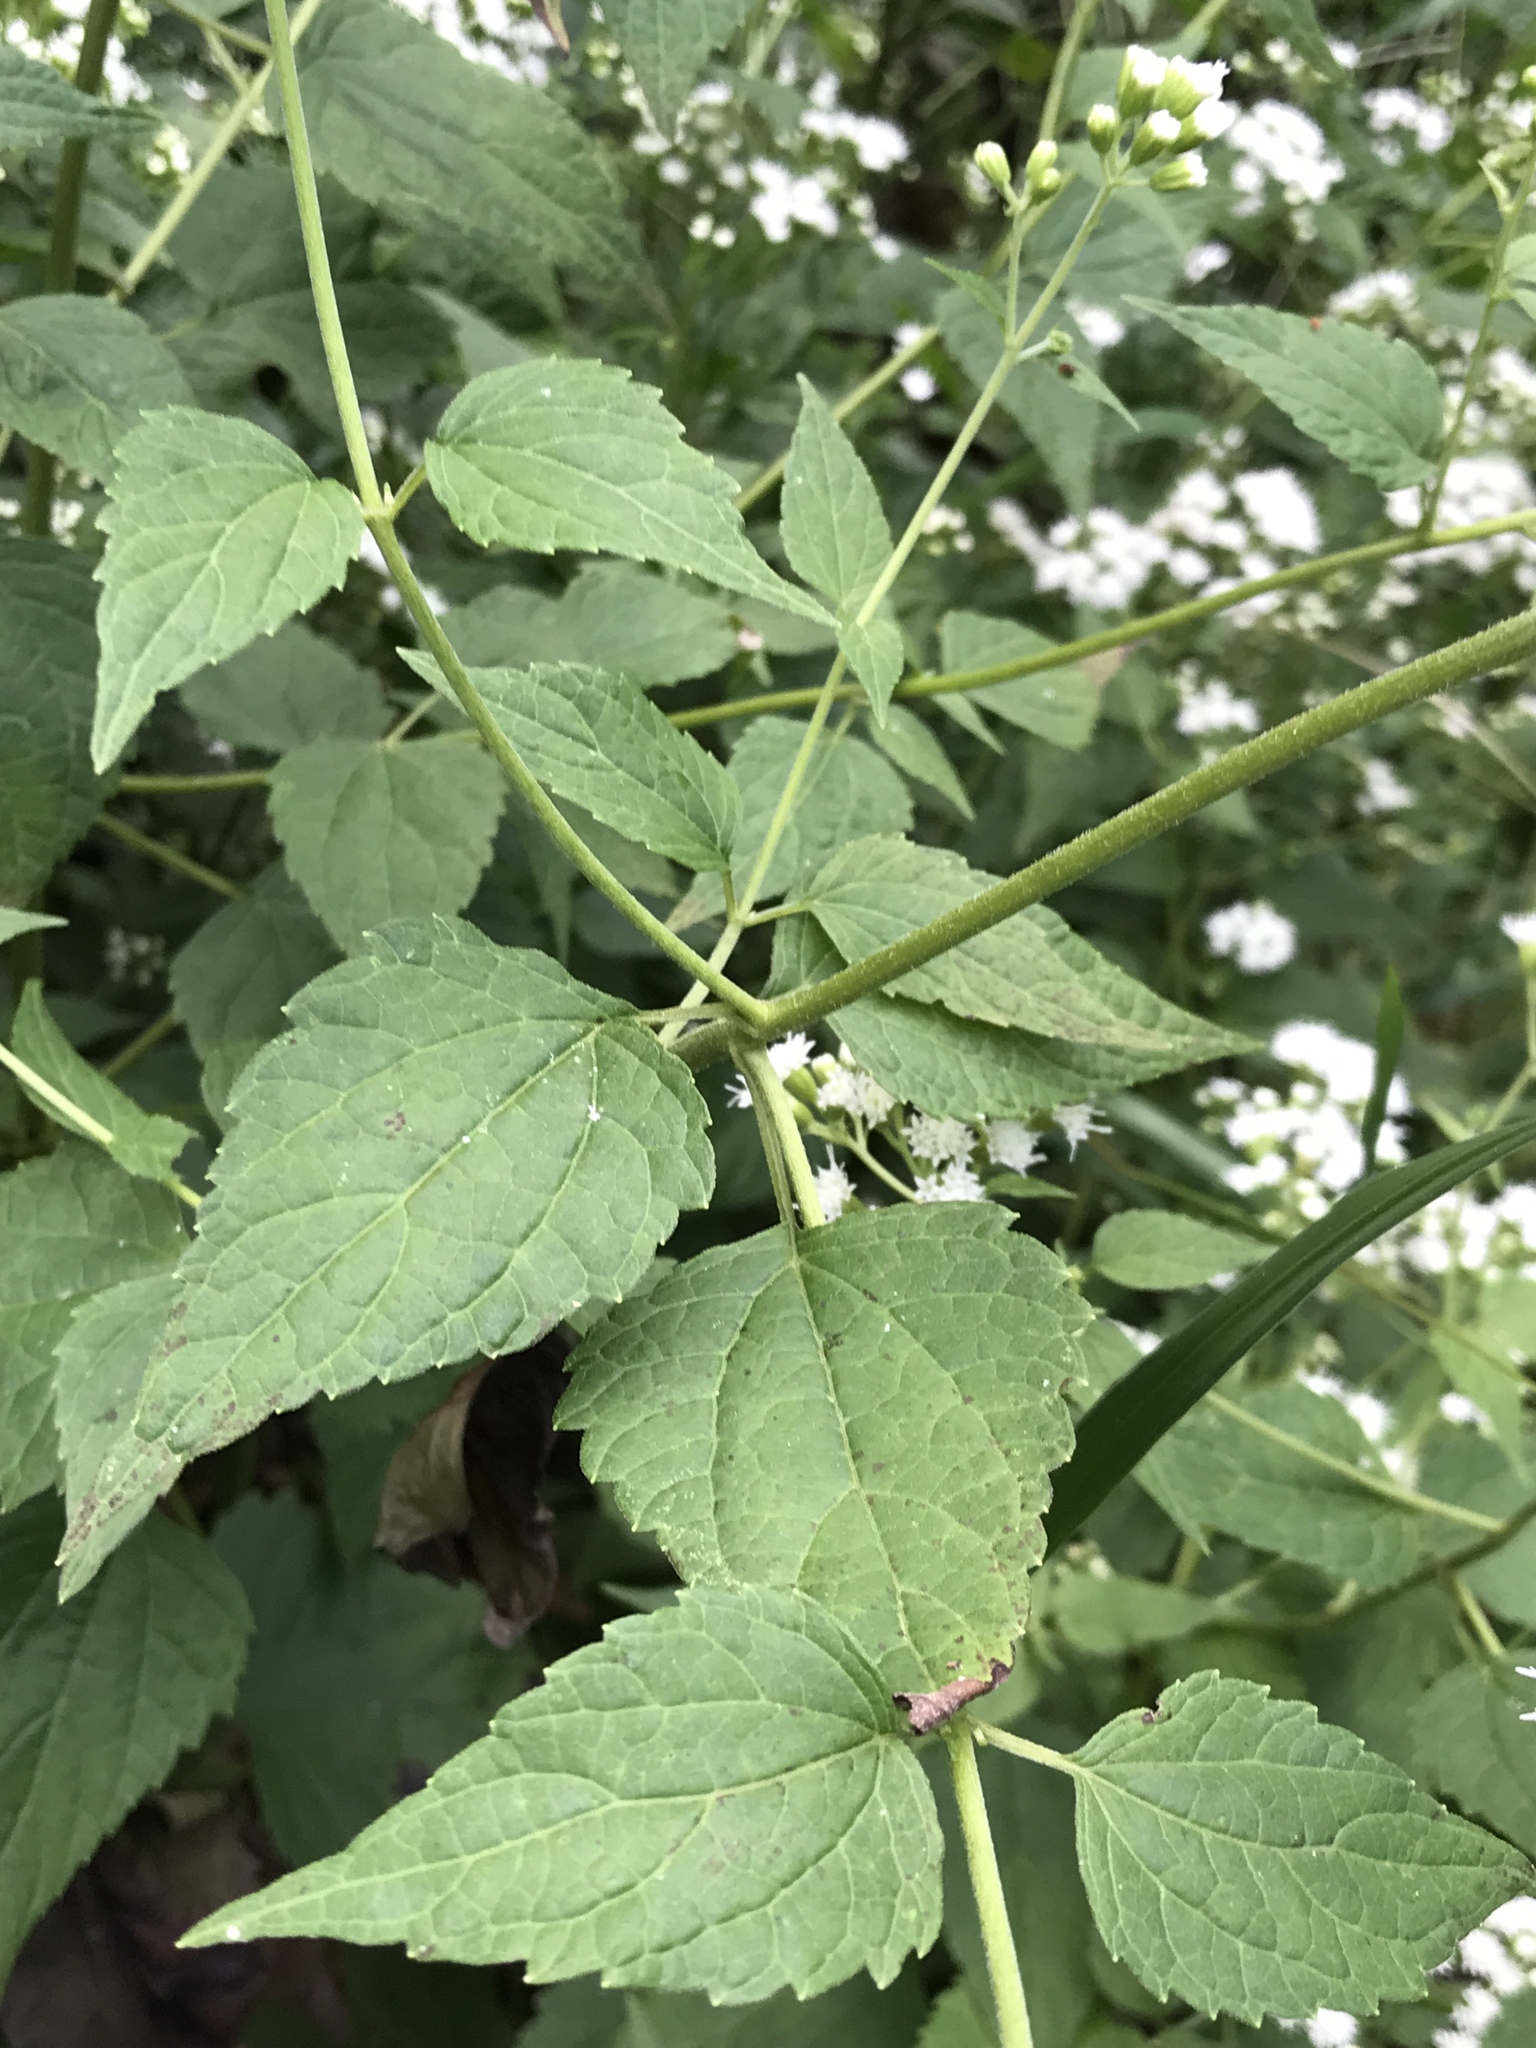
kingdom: Plantae
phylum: Tracheophyta
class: Magnoliopsida
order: Asterales
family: Asteraceae
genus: Ageratina
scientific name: Ageratina altissima
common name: White snakeroot
